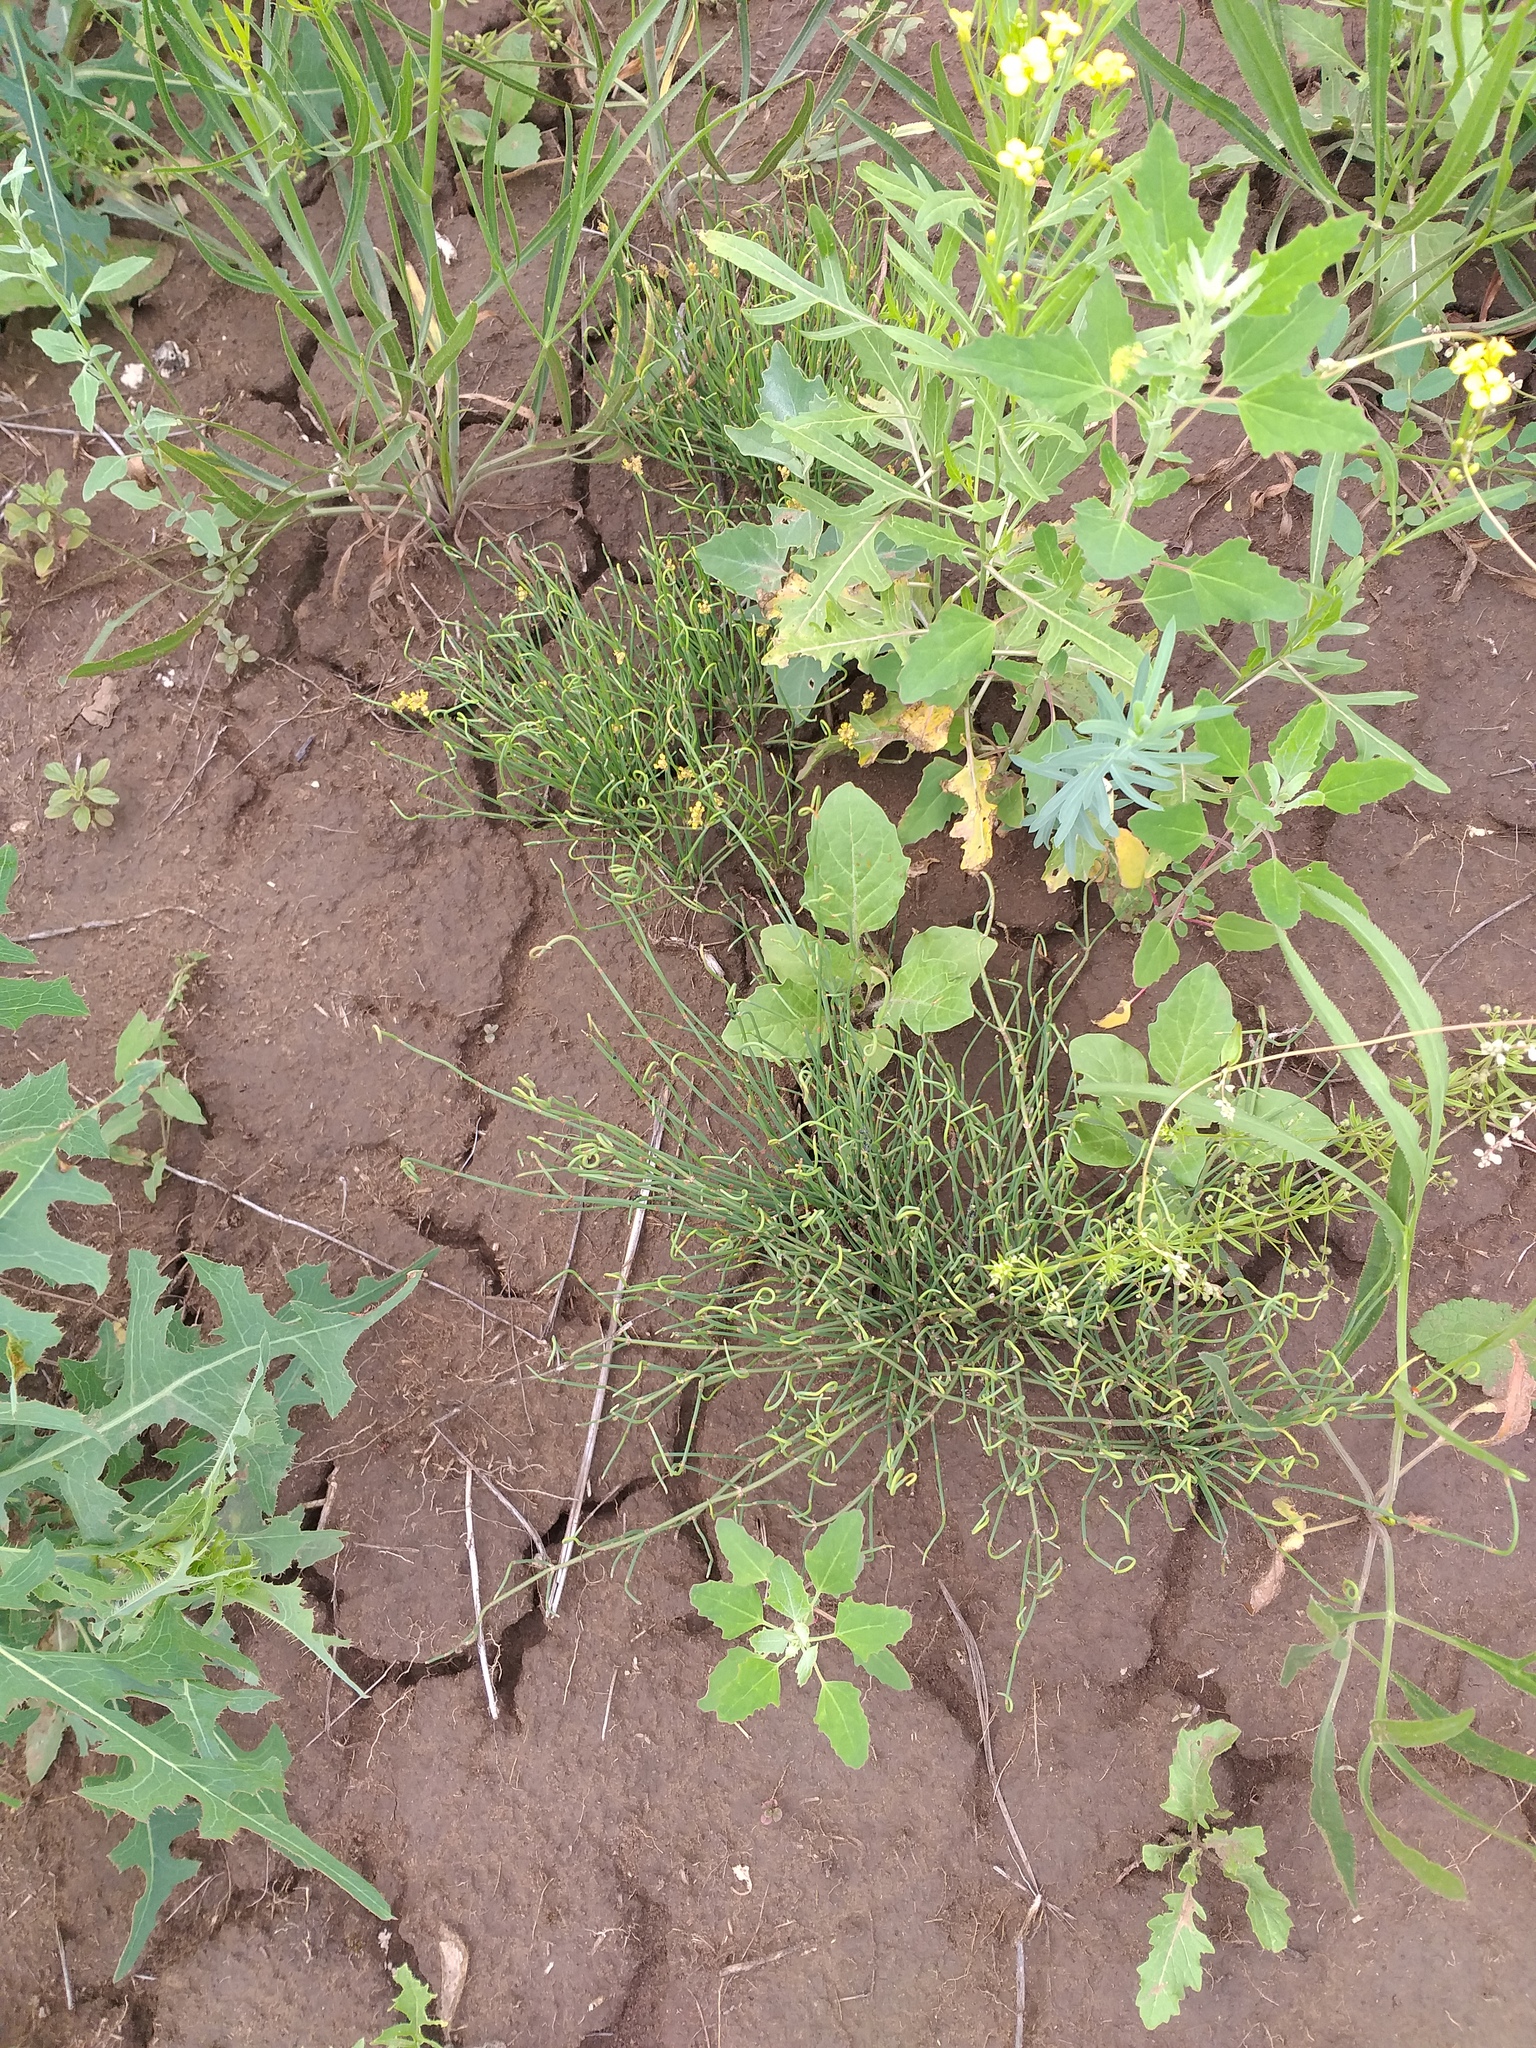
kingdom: Plantae
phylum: Tracheophyta
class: Gnetopsida
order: Ephedrales
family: Ephedraceae
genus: Ephedra
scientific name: Ephedra distachya
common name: Sea grape
